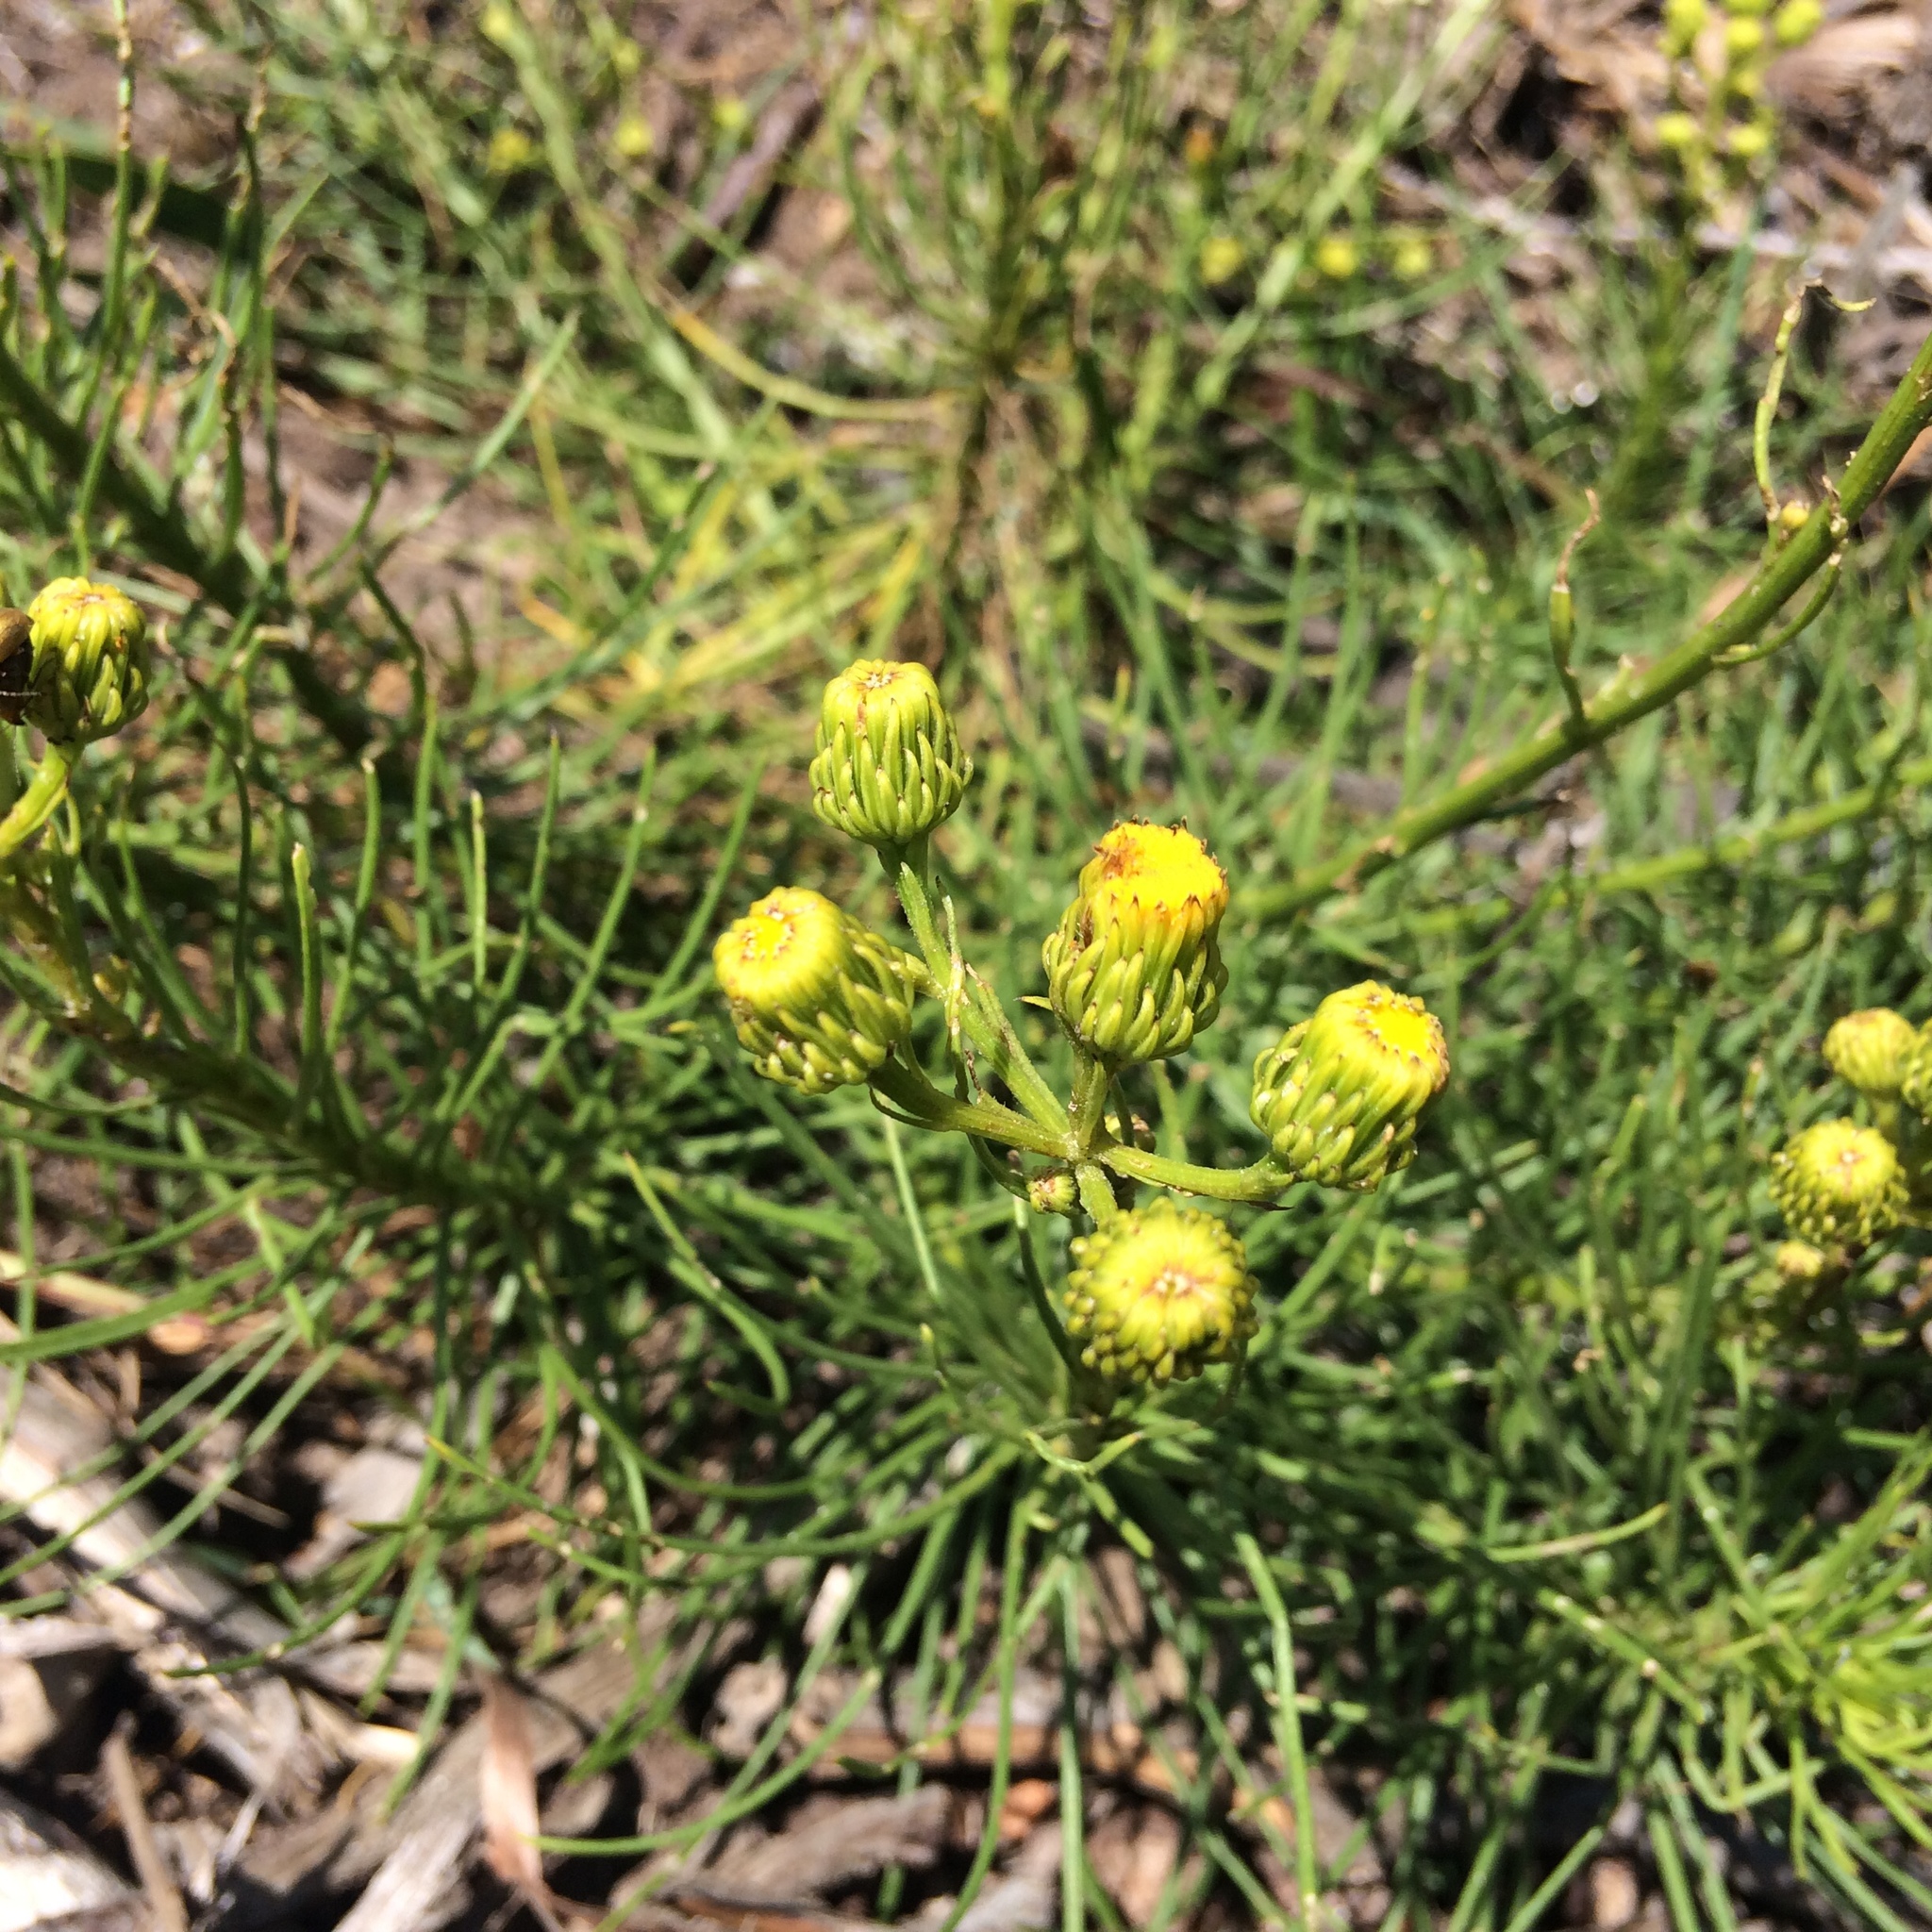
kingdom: Plantae
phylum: Tracheophyta
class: Magnoliopsida
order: Asterales
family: Asteraceae
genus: Senecio
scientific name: Senecio chrysocoma
